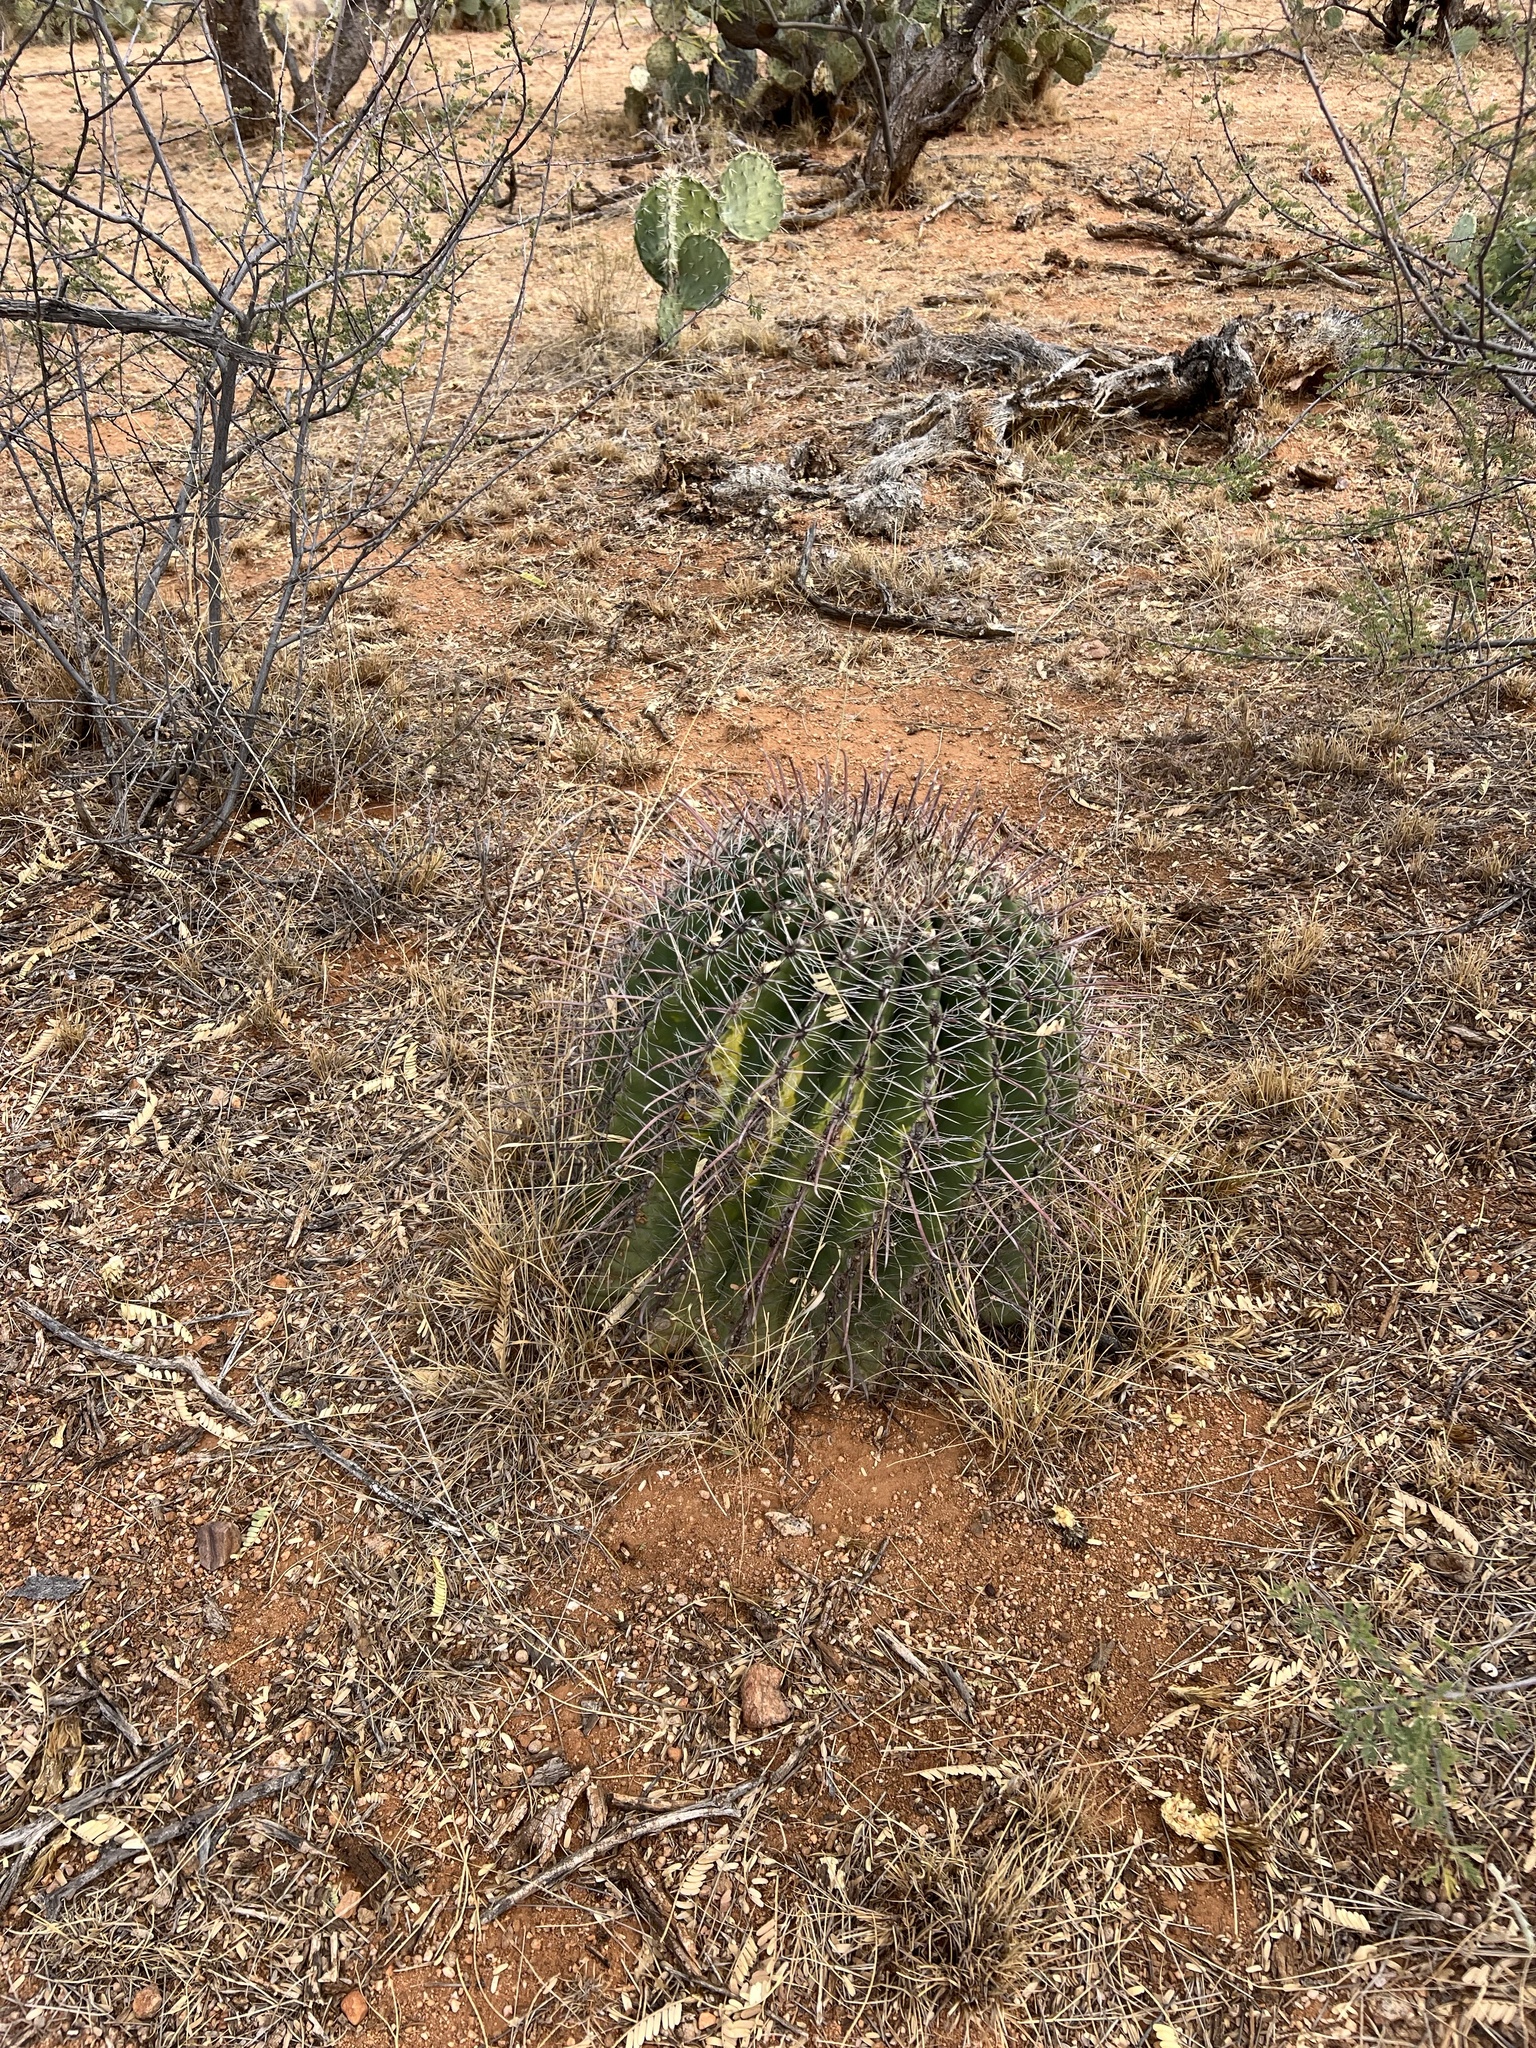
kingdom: Plantae
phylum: Tracheophyta
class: Magnoliopsida
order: Caryophyllales
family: Cactaceae
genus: Ferocactus
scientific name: Ferocactus wislizeni
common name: Candy barrel cactus
